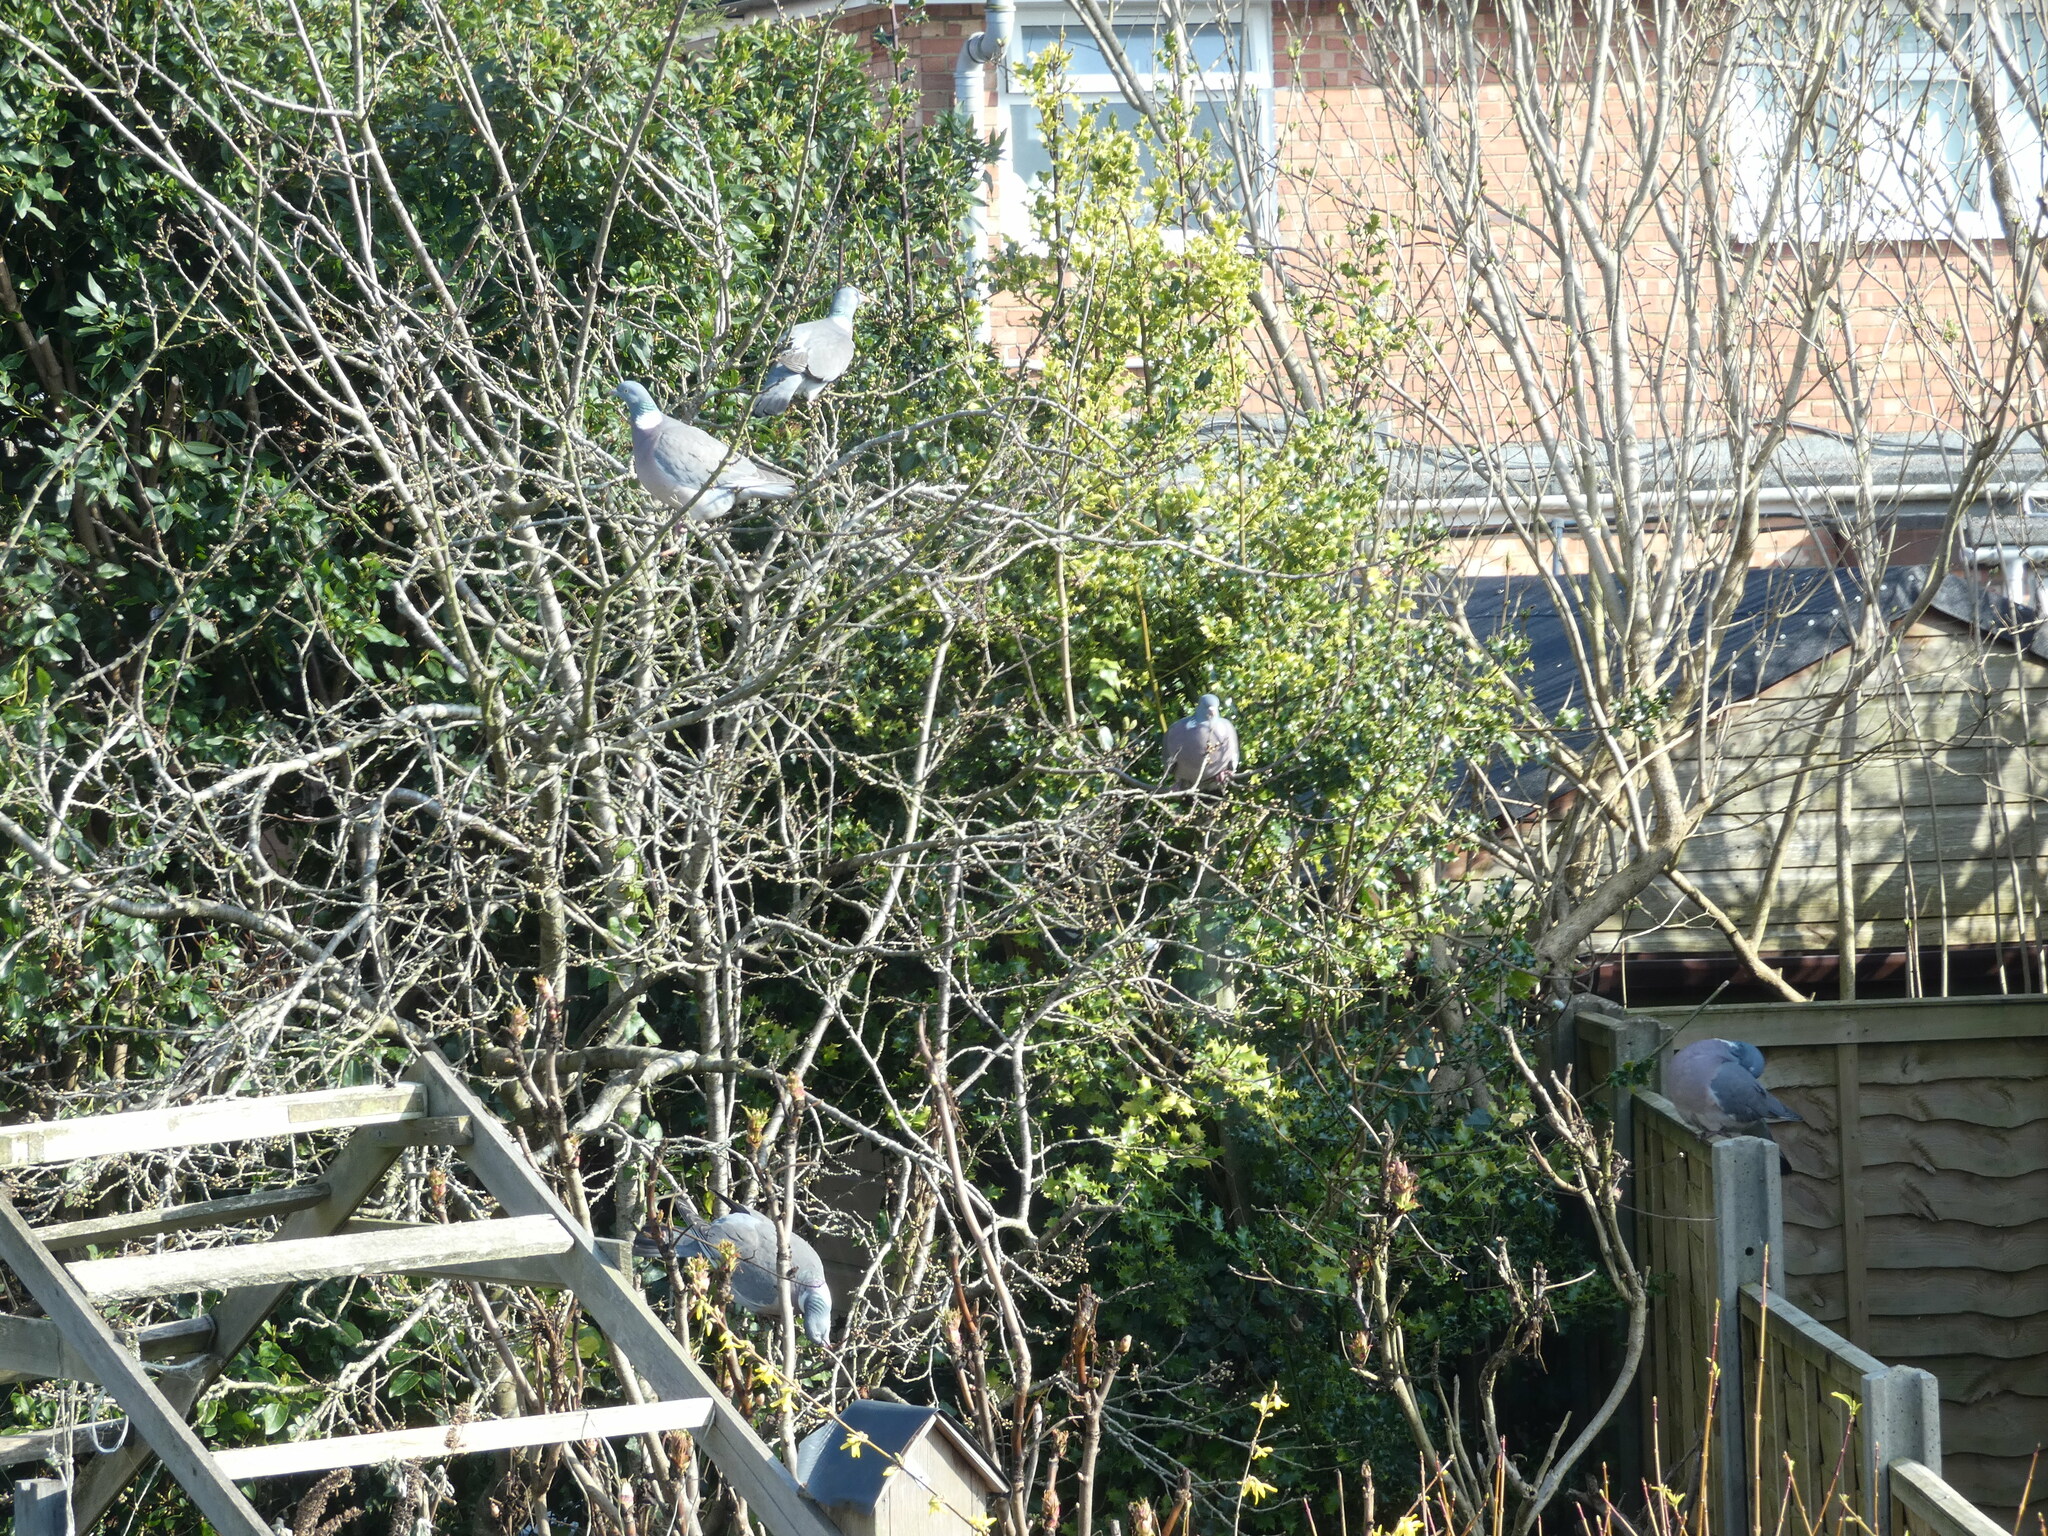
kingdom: Animalia
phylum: Chordata
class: Aves
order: Columbiformes
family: Columbidae
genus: Columba
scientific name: Columba palumbus
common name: Common wood pigeon
